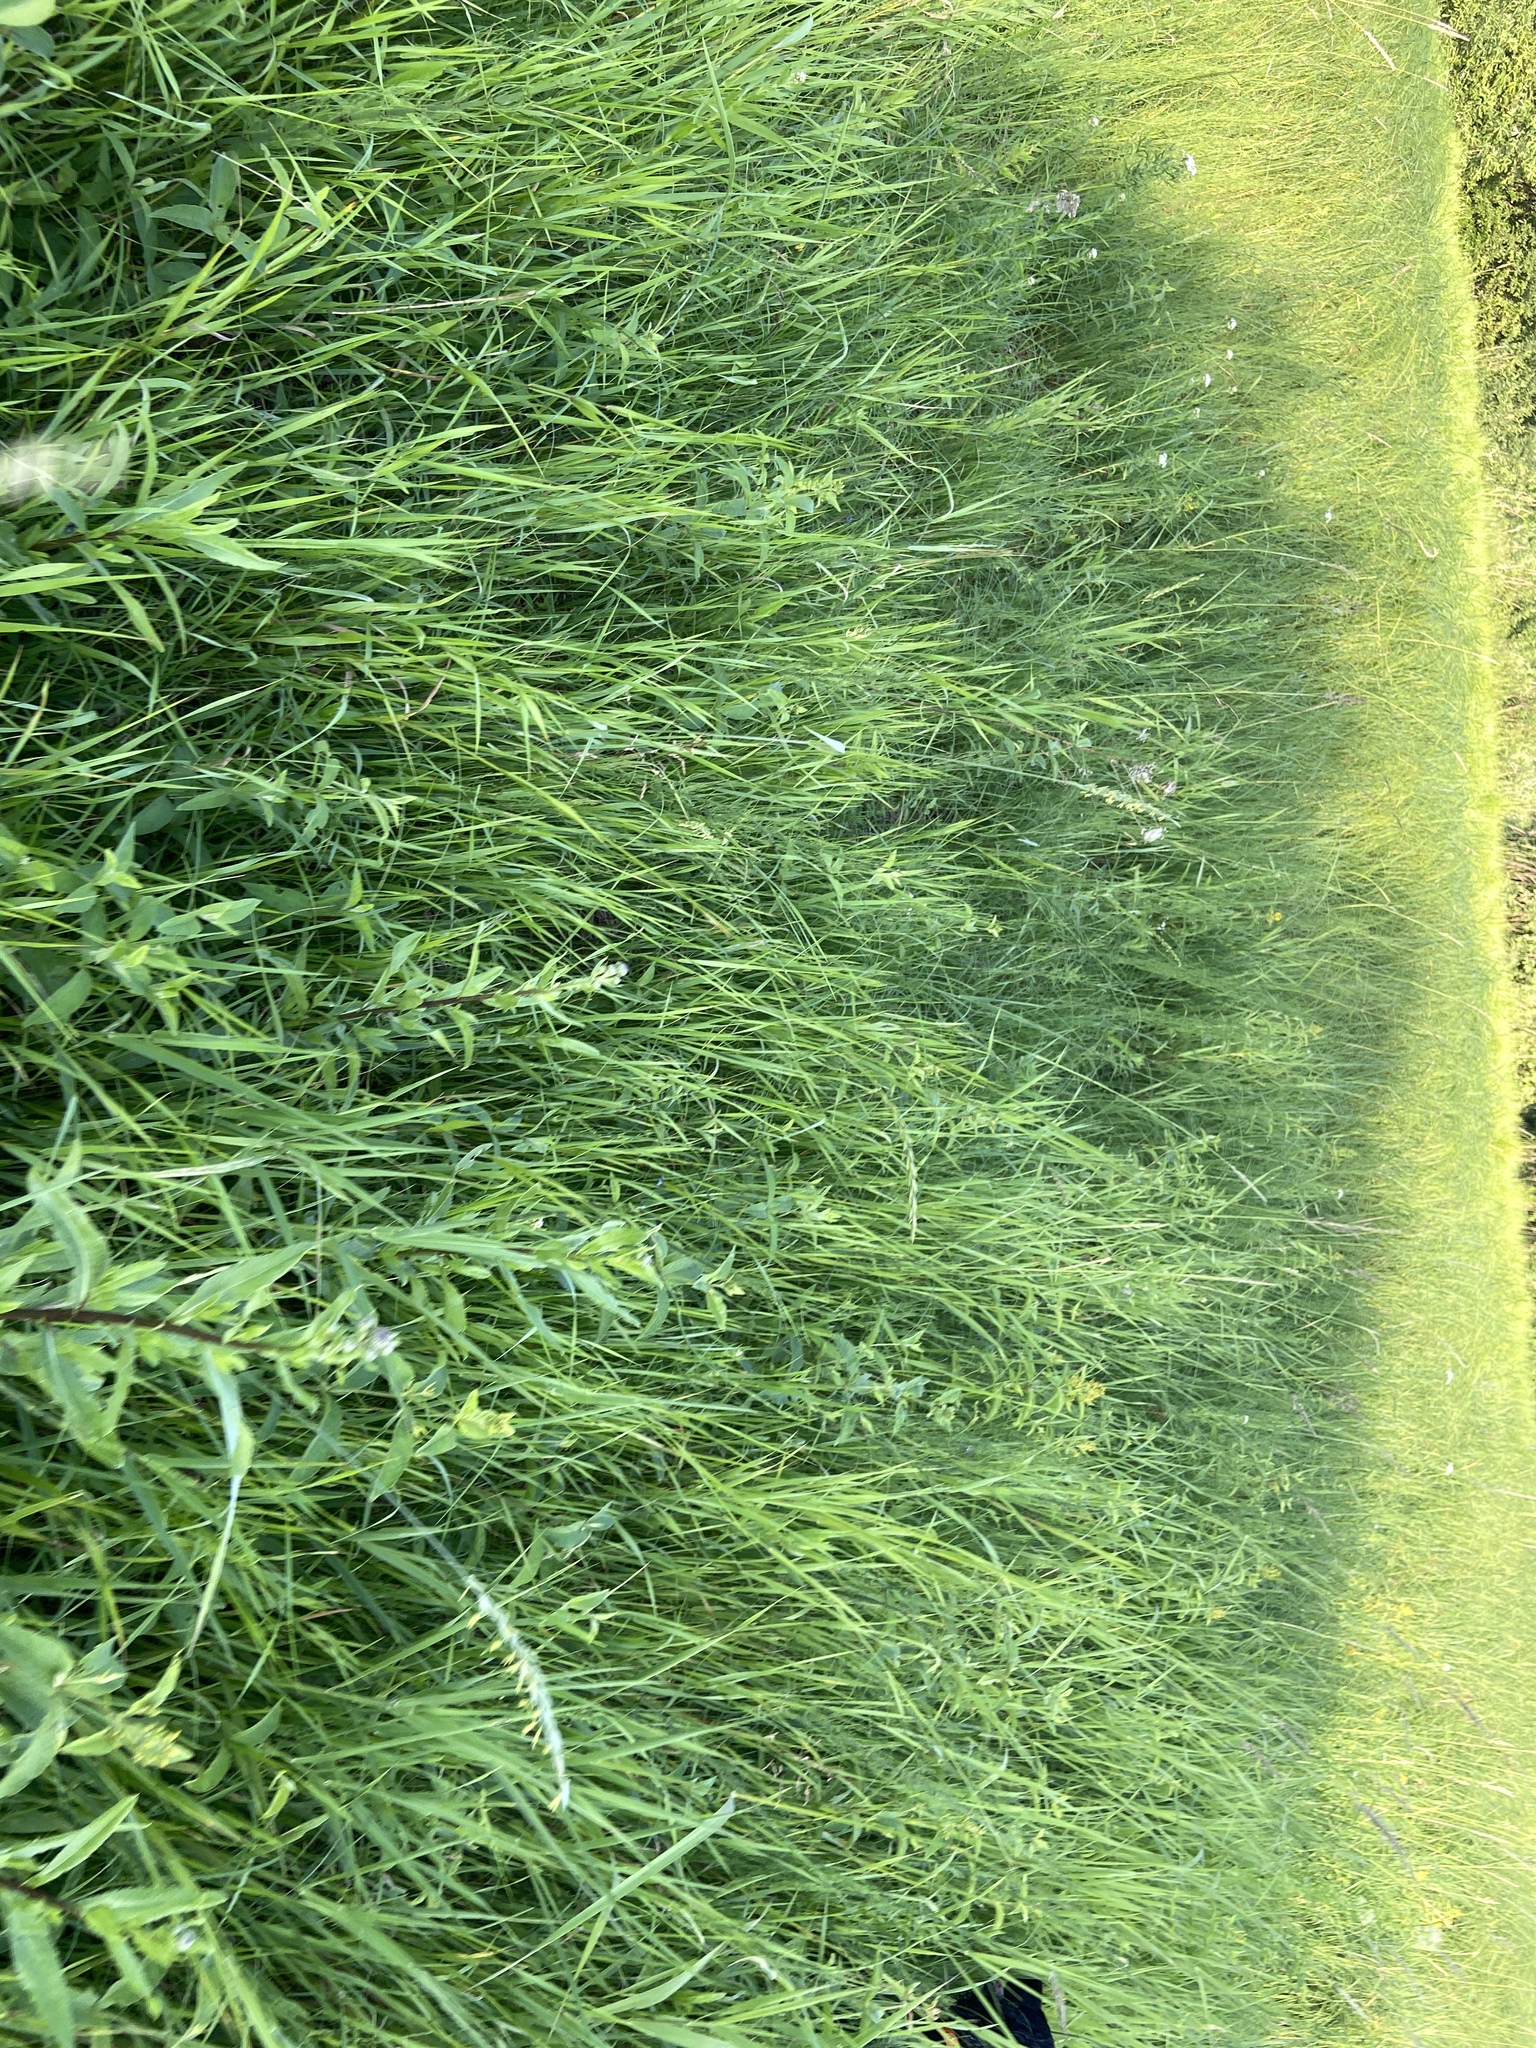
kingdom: Plantae
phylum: Tracheophyta
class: Magnoliopsida
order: Asterales
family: Asteraceae
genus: Cirsium
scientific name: Cirsium arvense
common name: Creeping thistle
